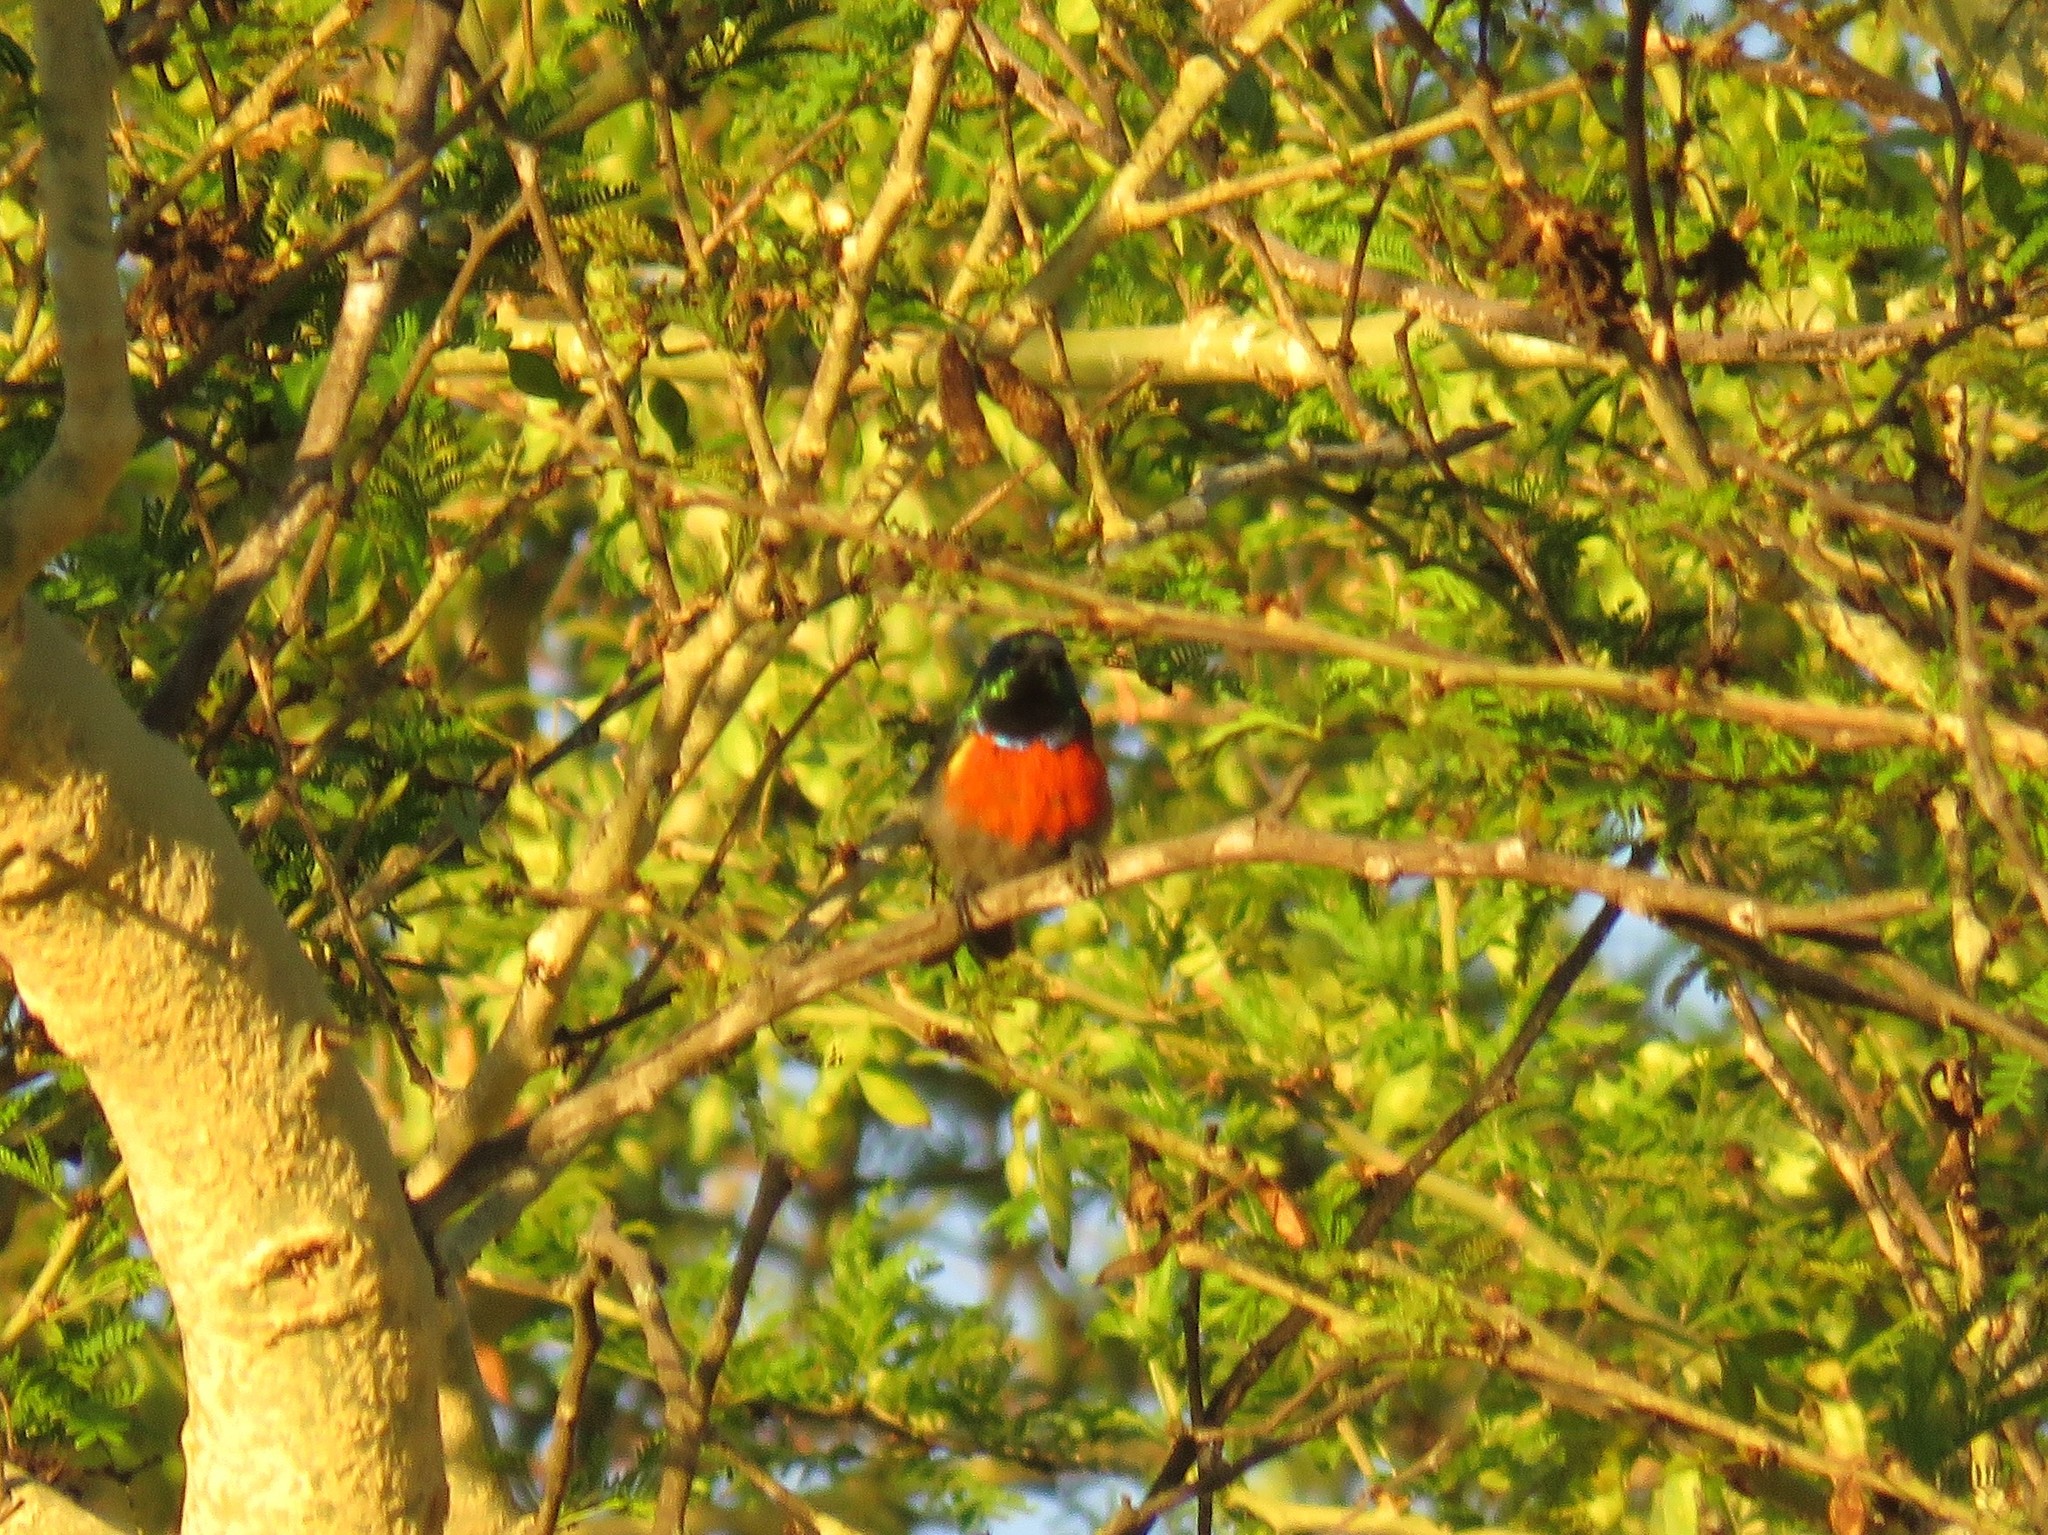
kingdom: Animalia
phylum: Chordata
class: Aves
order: Passeriformes
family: Nectariniidae
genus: Cinnyris
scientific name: Cinnyris afer
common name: Greater double-collared sunbird
